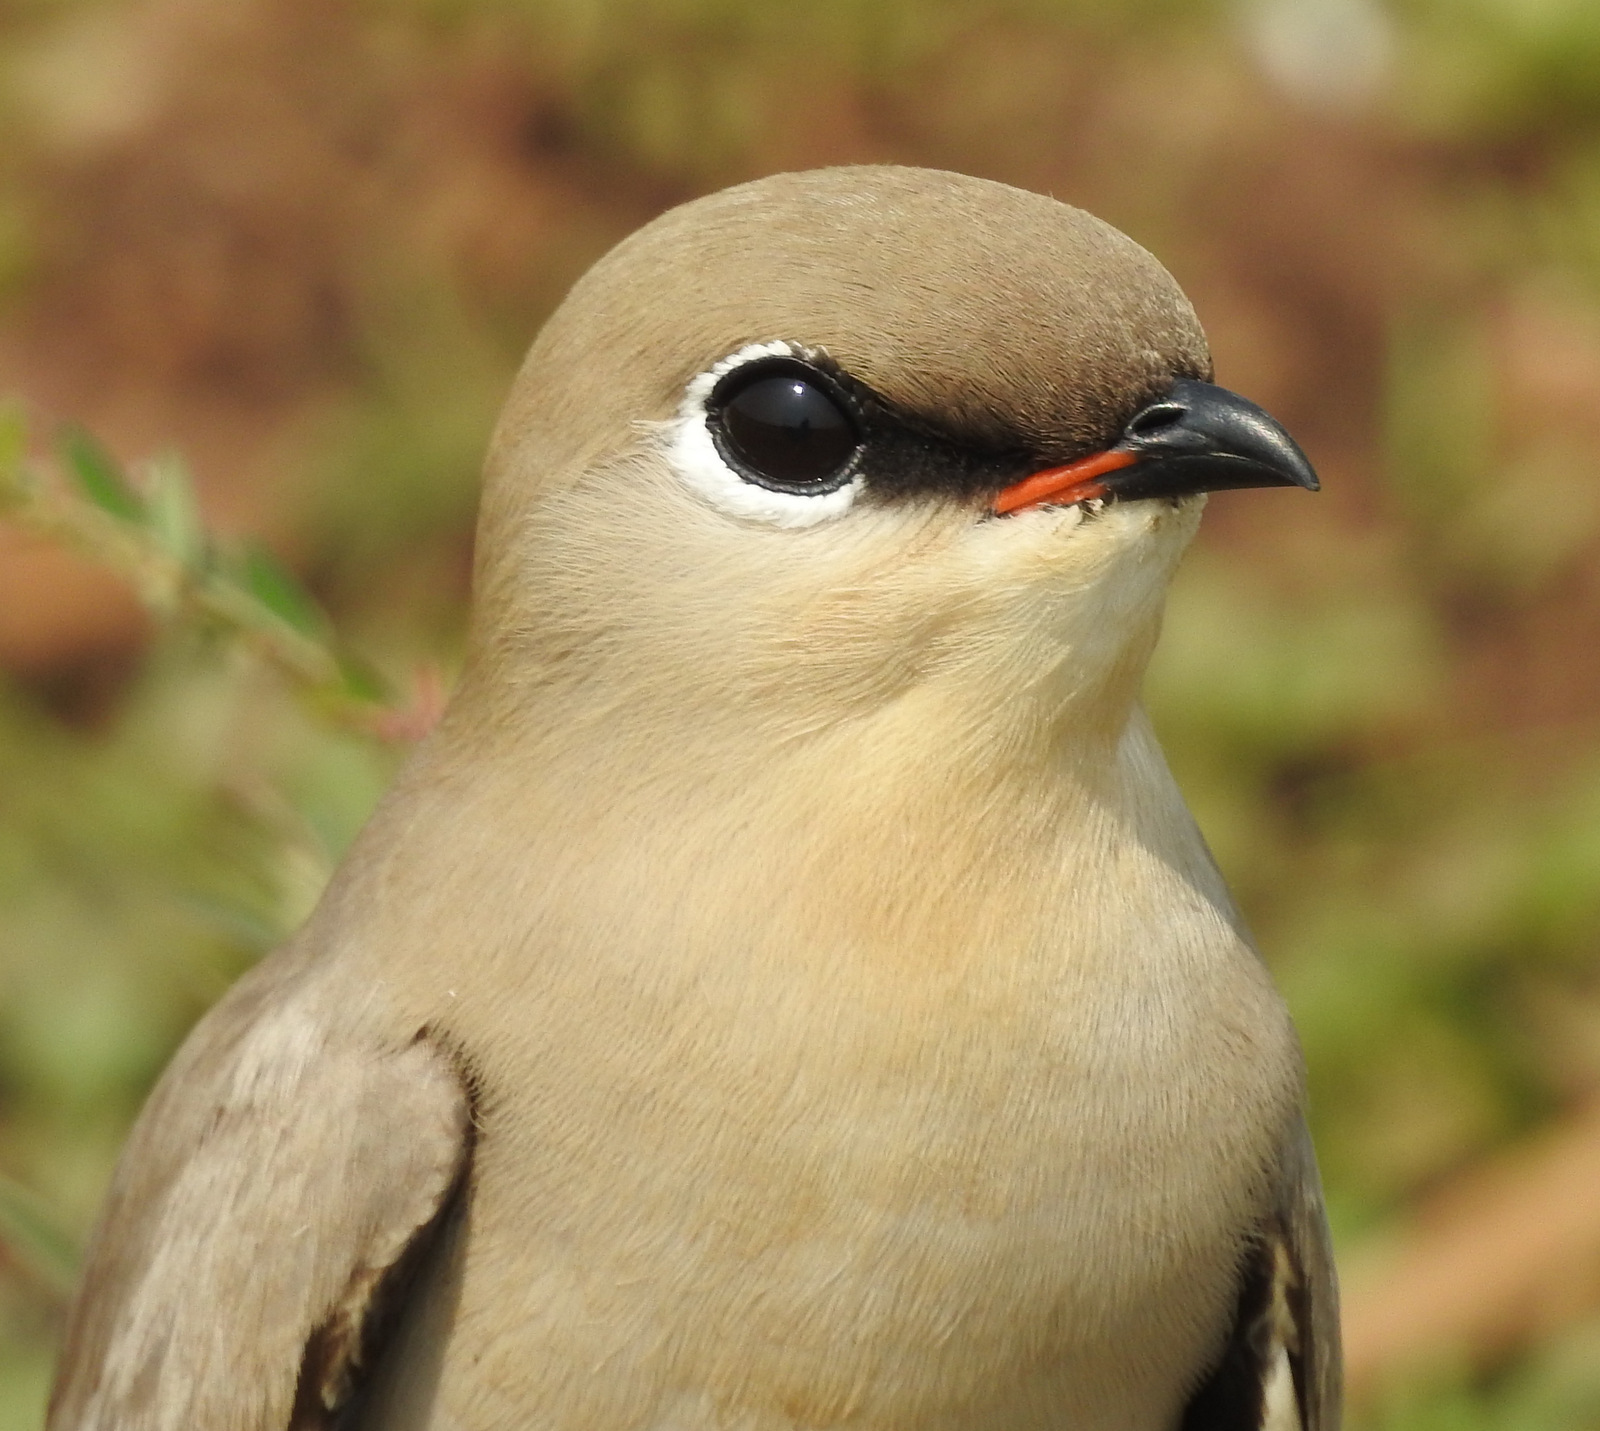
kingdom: Animalia
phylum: Chordata
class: Aves
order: Charadriiformes
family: Glareolidae
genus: Glareola
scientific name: Glareola lactea
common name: Small pratincole
